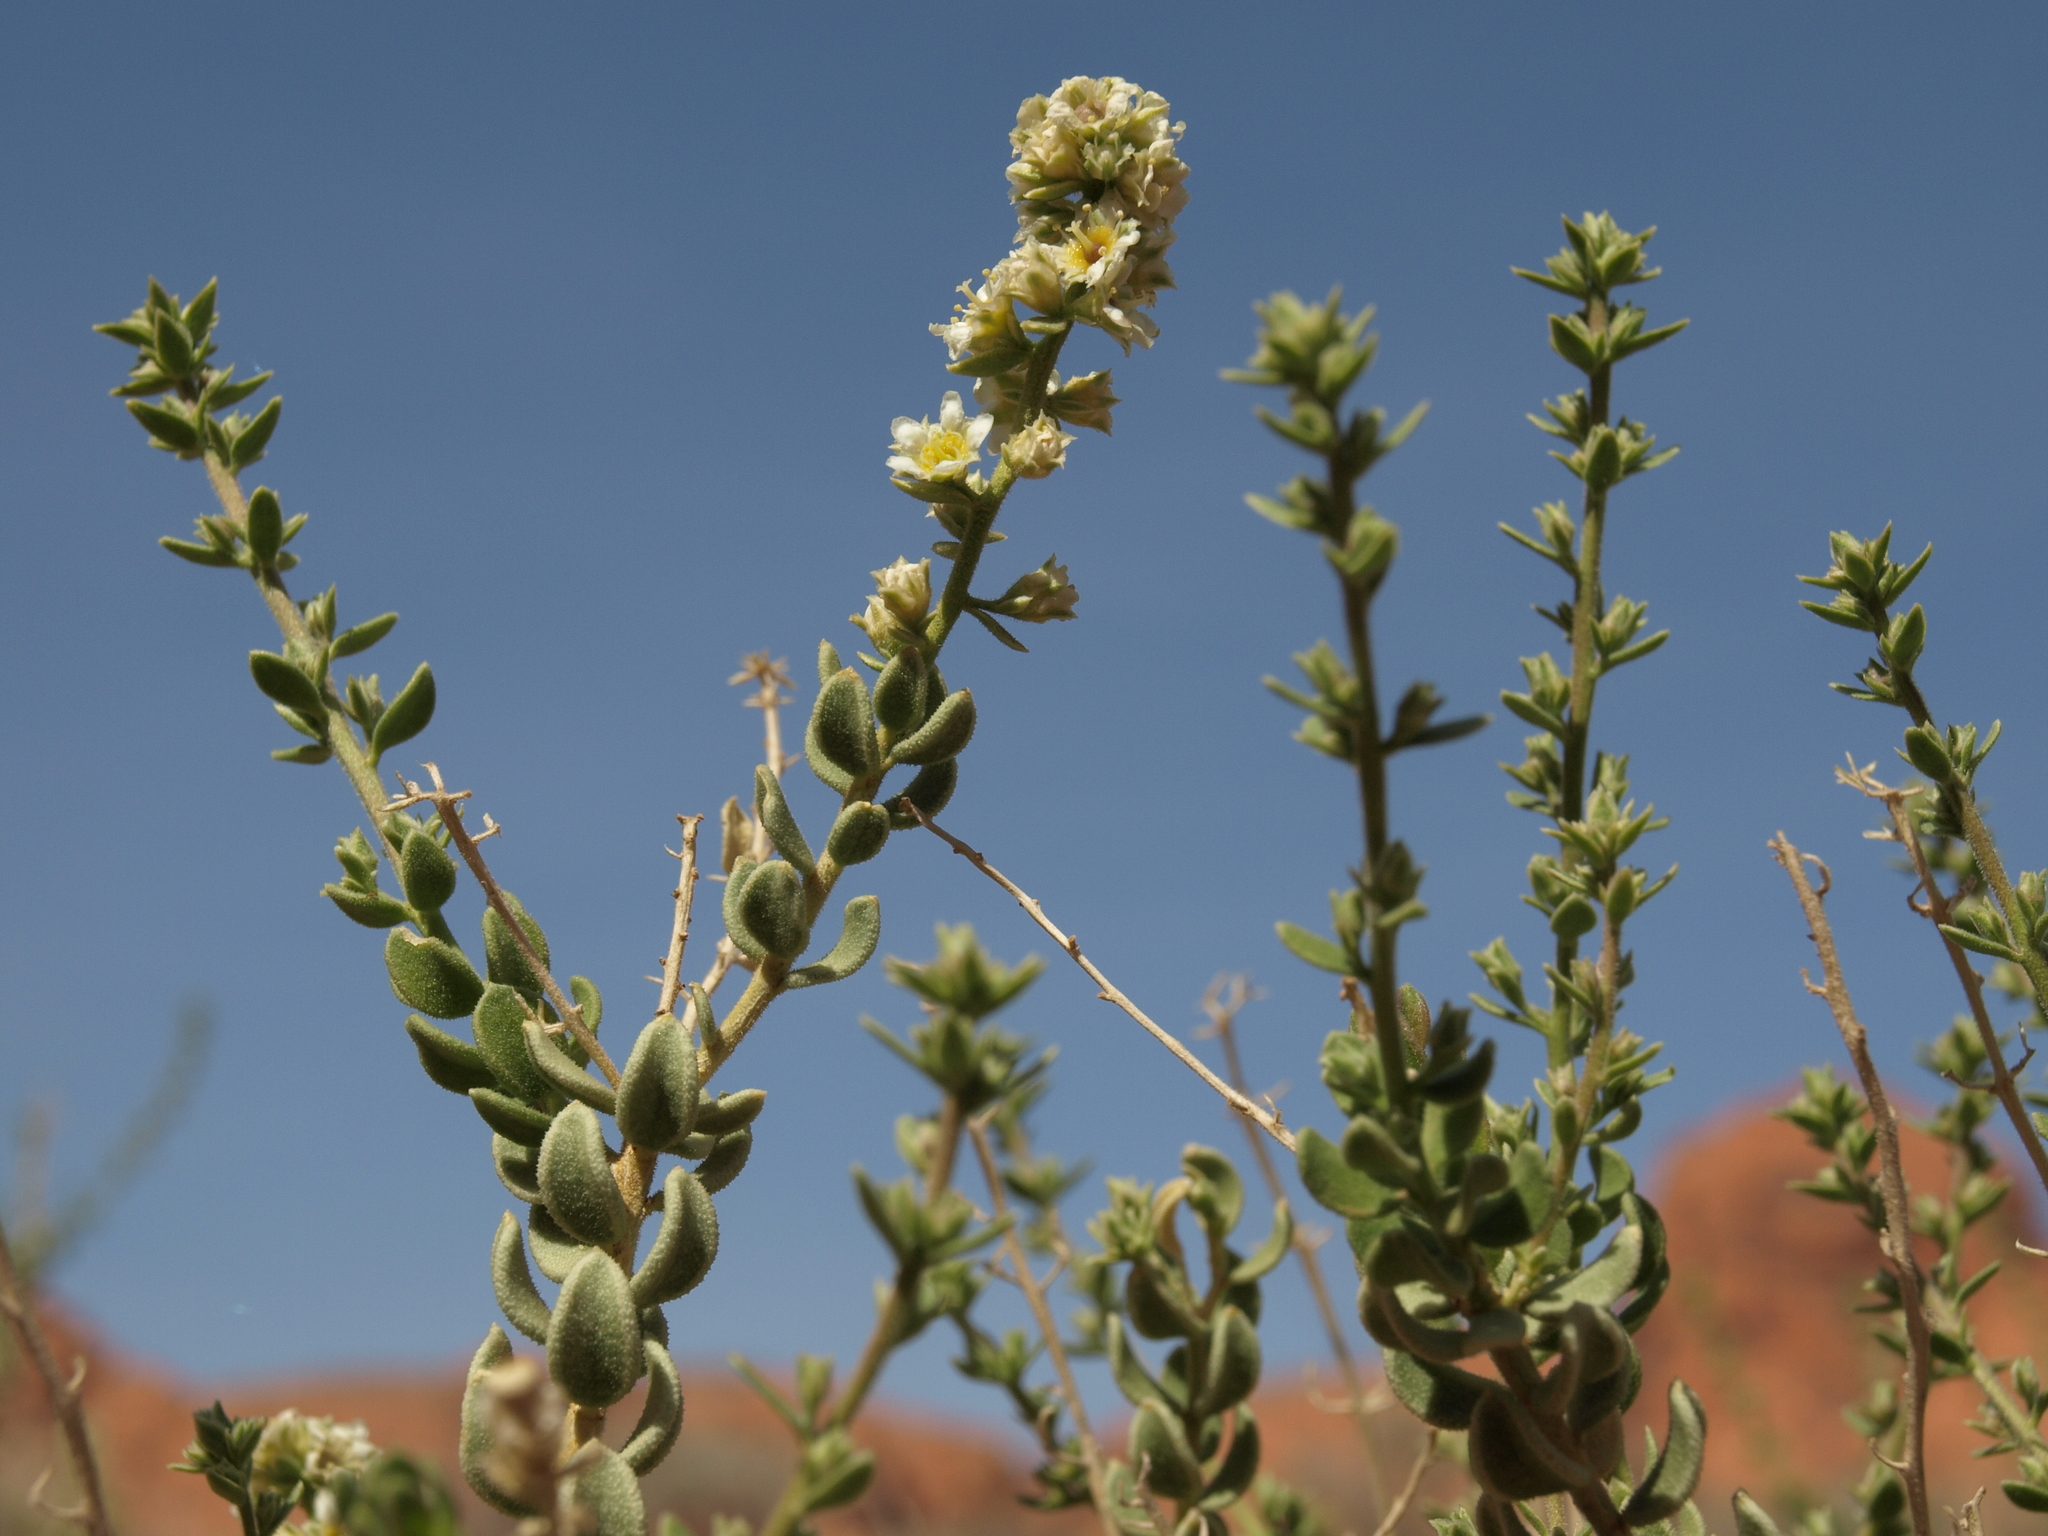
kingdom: Plantae
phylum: Tracheophyta
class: Magnoliopsida
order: Celastrales
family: Celastraceae
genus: Mortonia
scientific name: Mortonia utahensis
